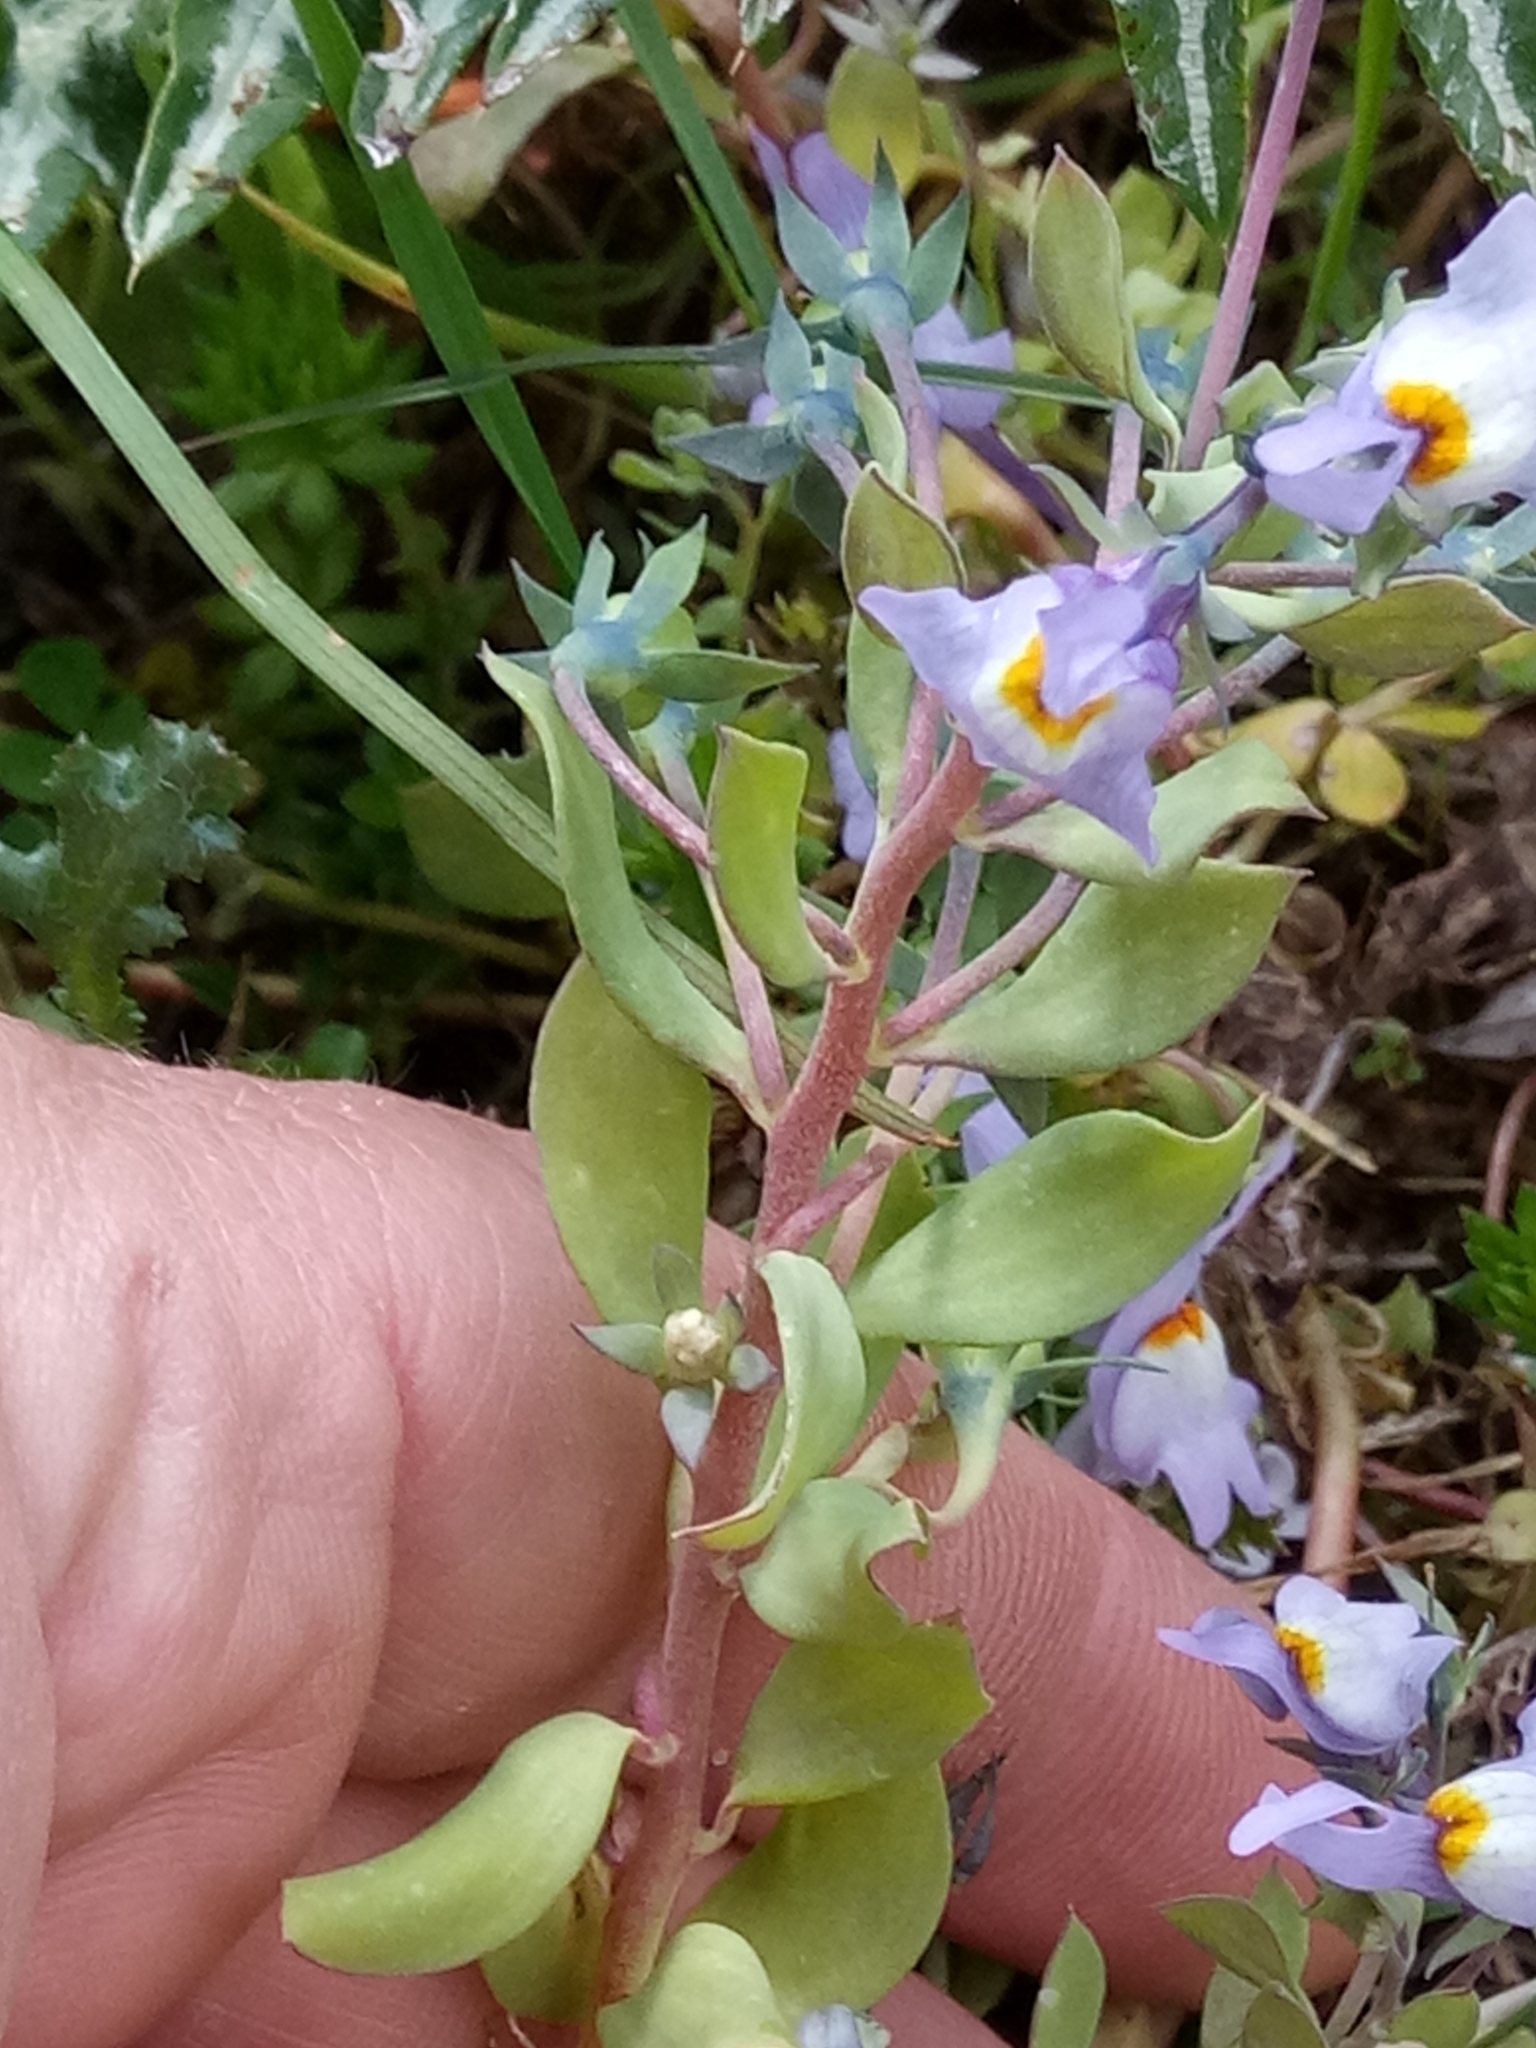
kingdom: Plantae
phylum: Tracheophyta
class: Magnoliopsida
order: Lamiales
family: Plantaginaceae
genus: Linaria
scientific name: Linaria reflexa
